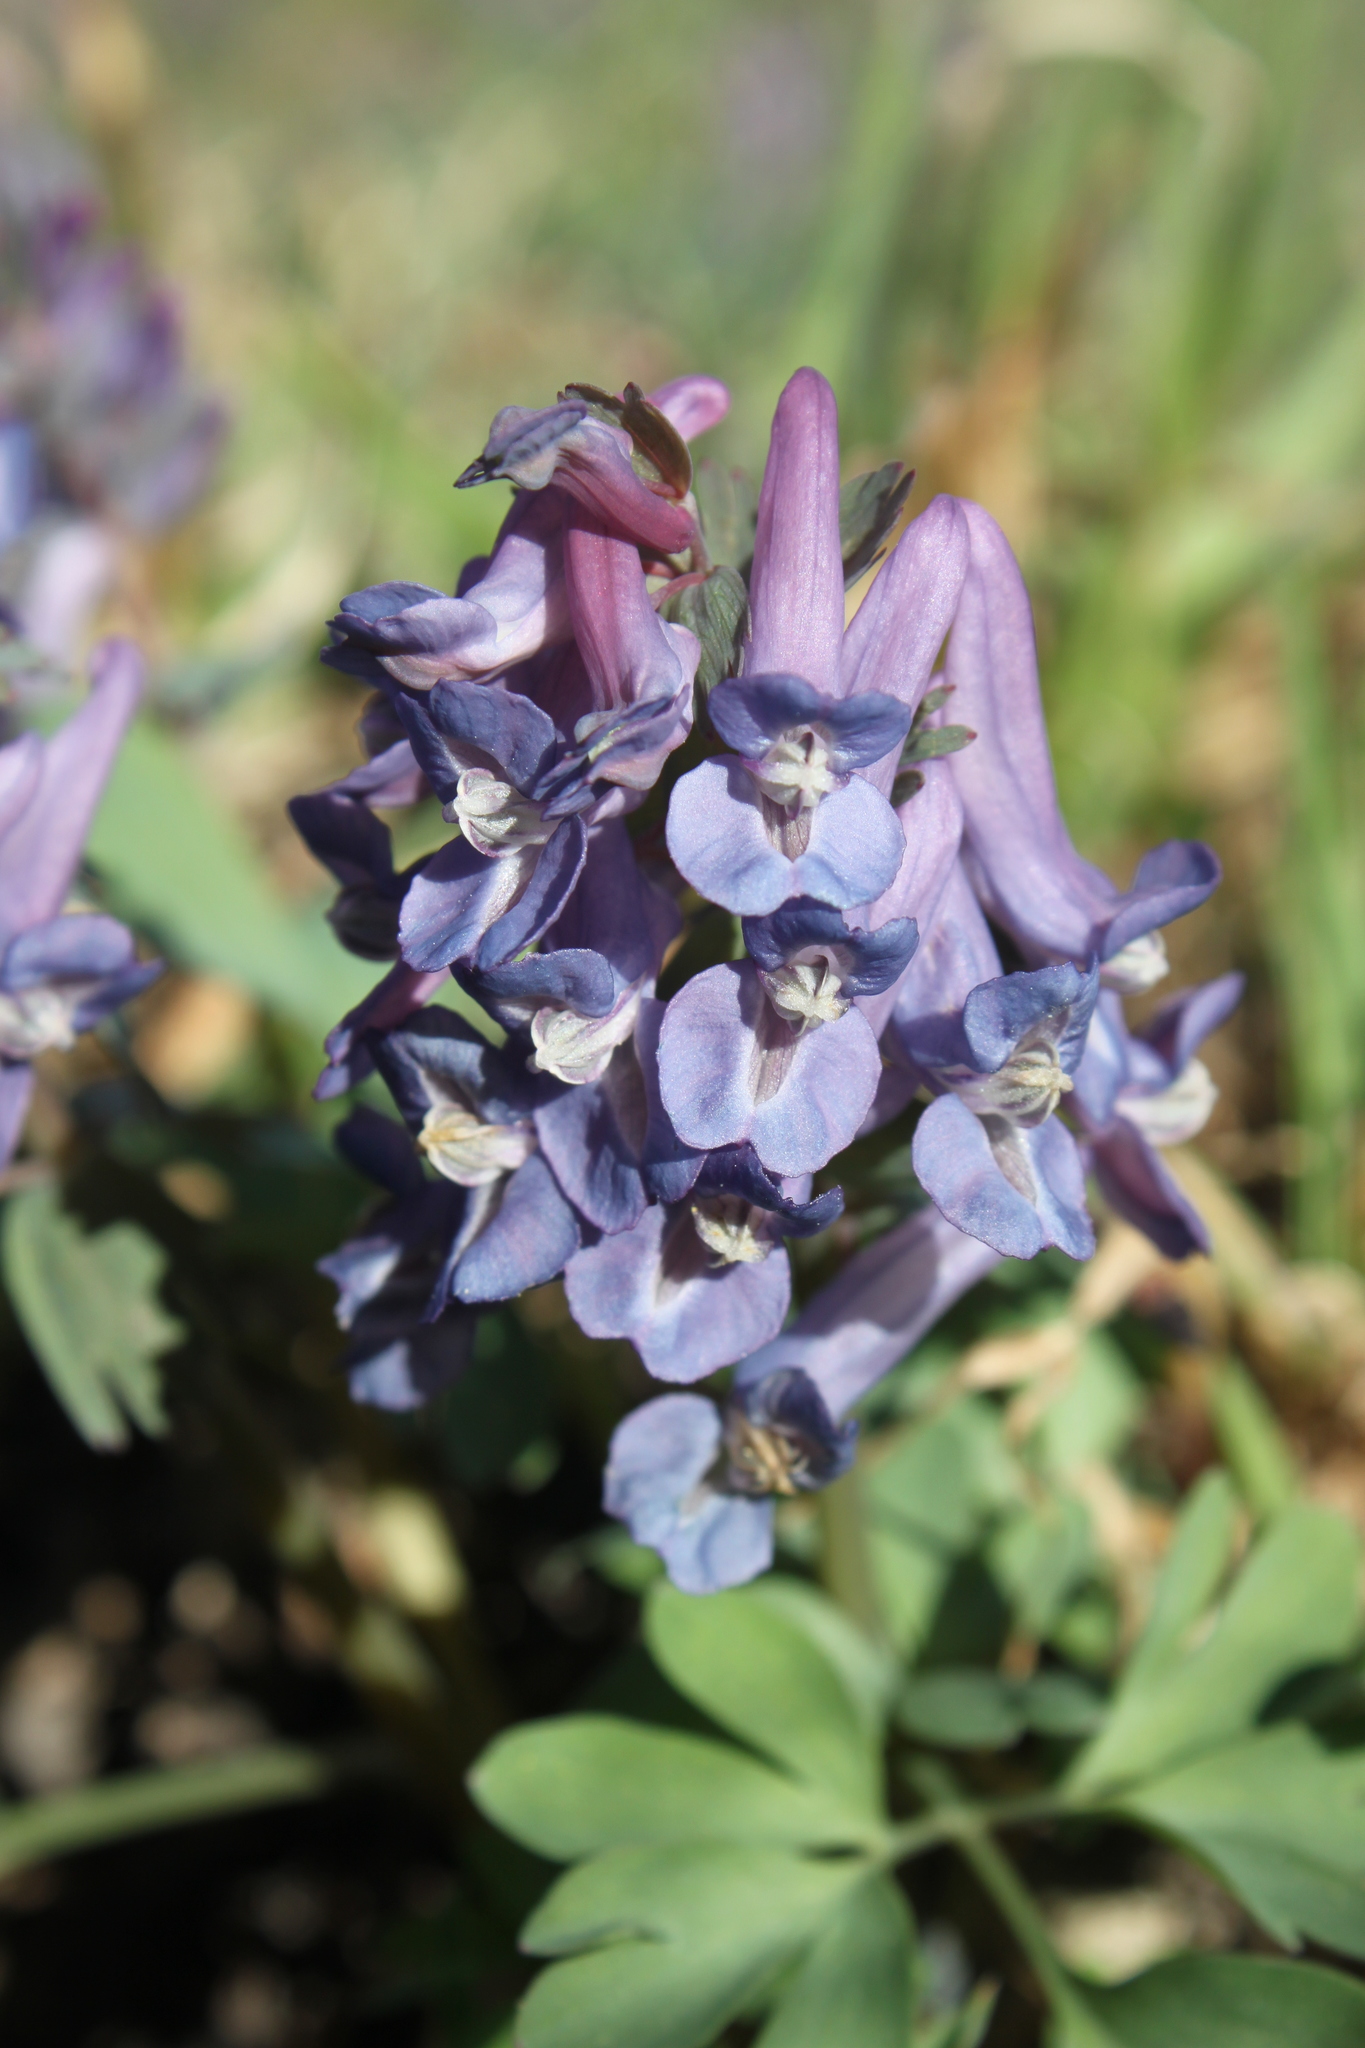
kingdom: Plantae
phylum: Tracheophyta
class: Magnoliopsida
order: Ranunculales
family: Papaveraceae
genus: Corydalis
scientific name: Corydalis solida
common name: Bird-in-a-bush
